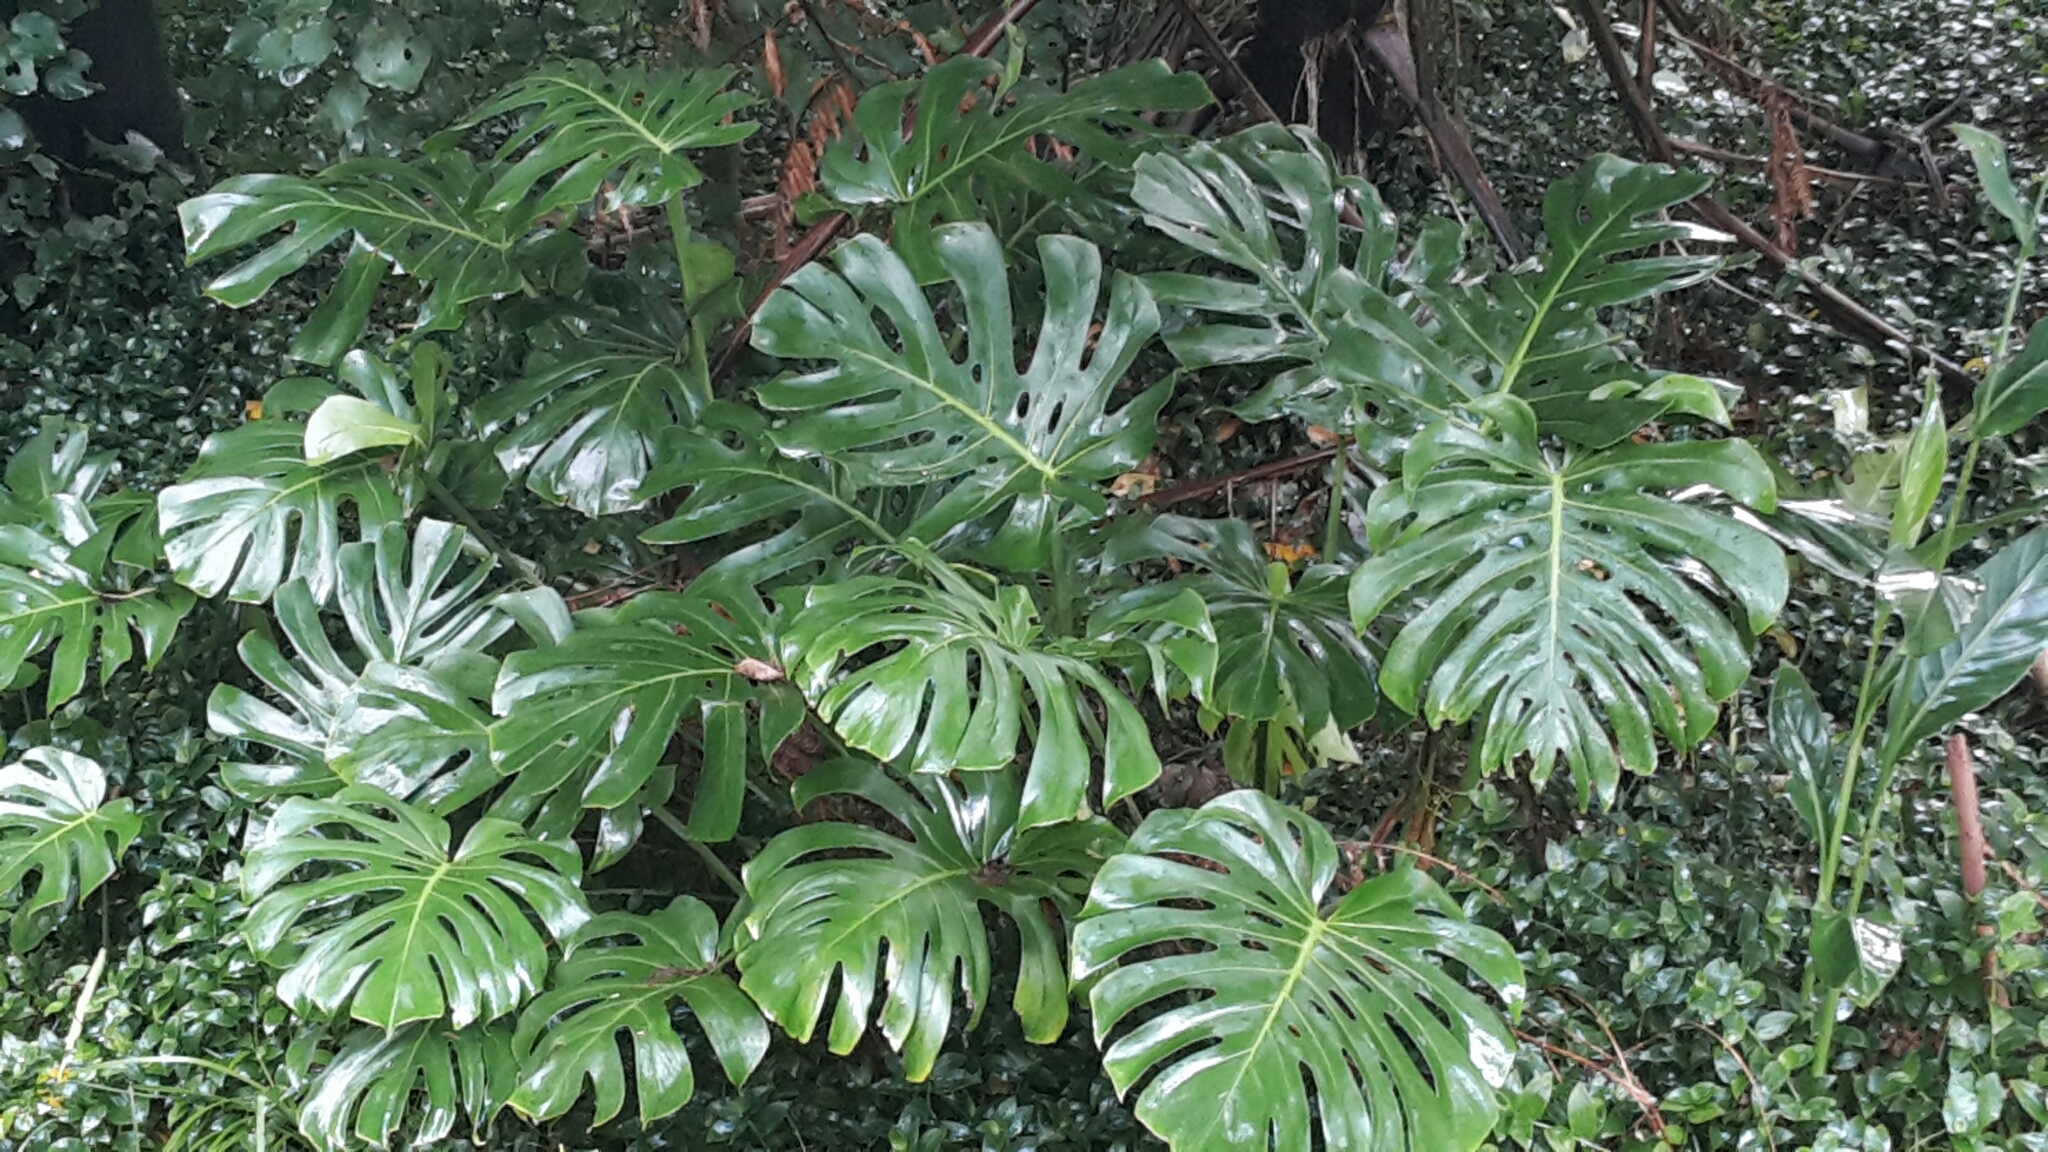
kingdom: Plantae
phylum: Tracheophyta
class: Liliopsida
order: Alismatales
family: Araceae
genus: Monstera
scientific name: Monstera deliciosa
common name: Cut-leaf-philodendron
